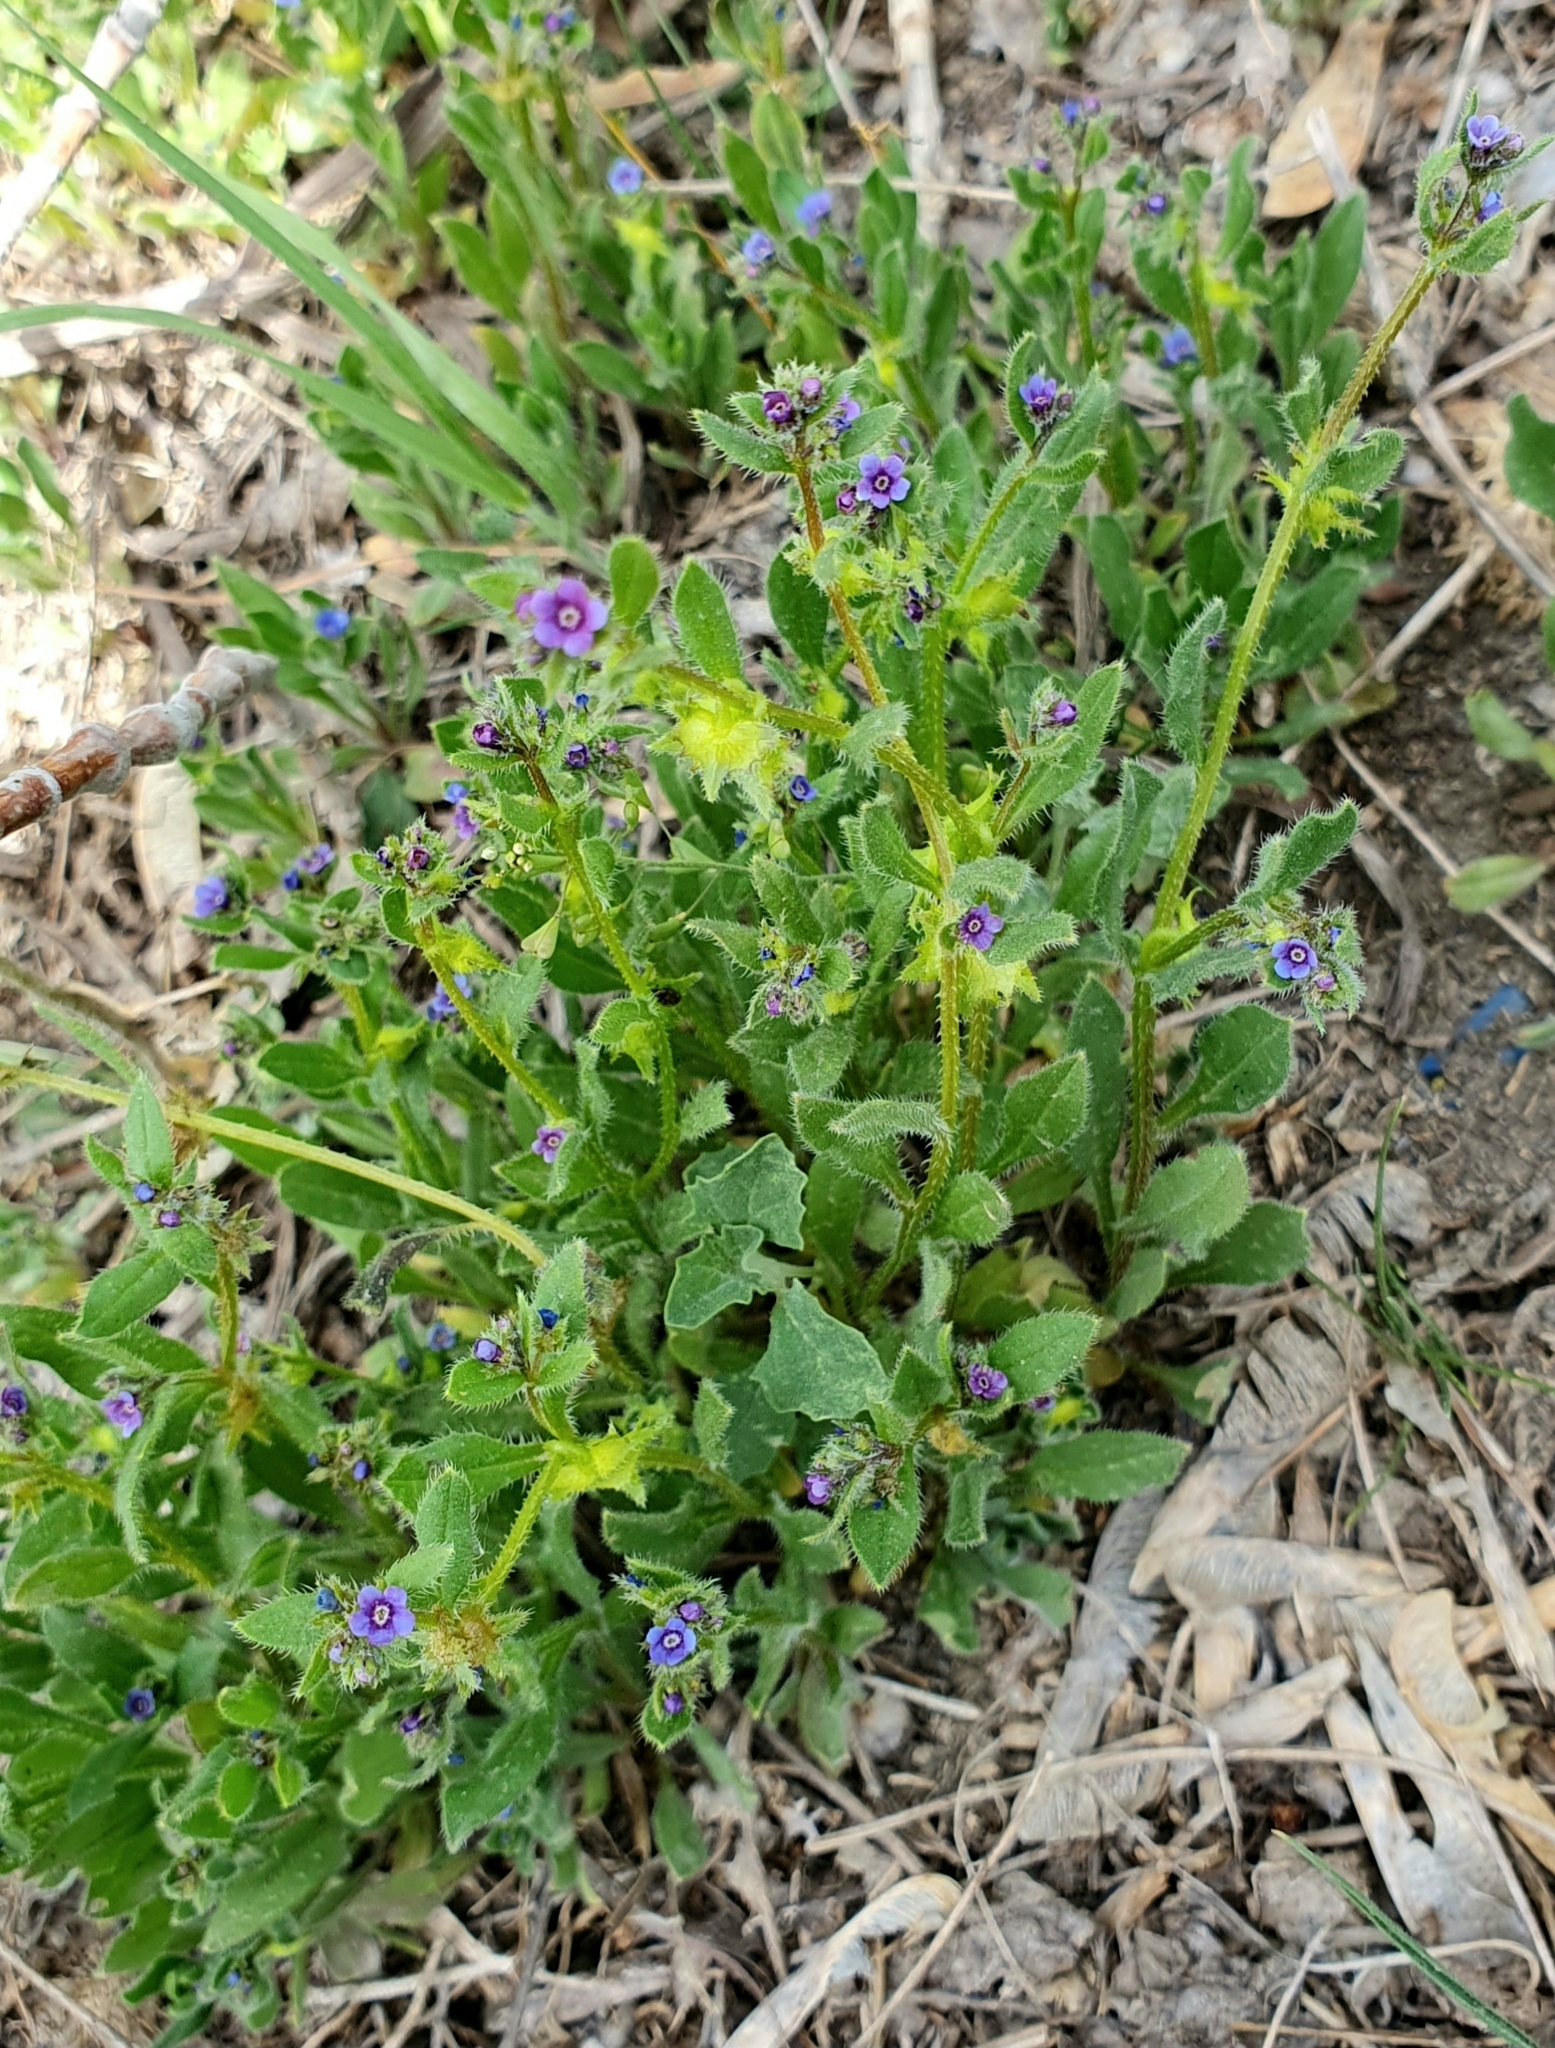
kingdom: Plantae
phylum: Tracheophyta
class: Magnoliopsida
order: Boraginales
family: Boraginaceae
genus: Asperugo
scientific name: Asperugo procumbens
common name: Madwort
